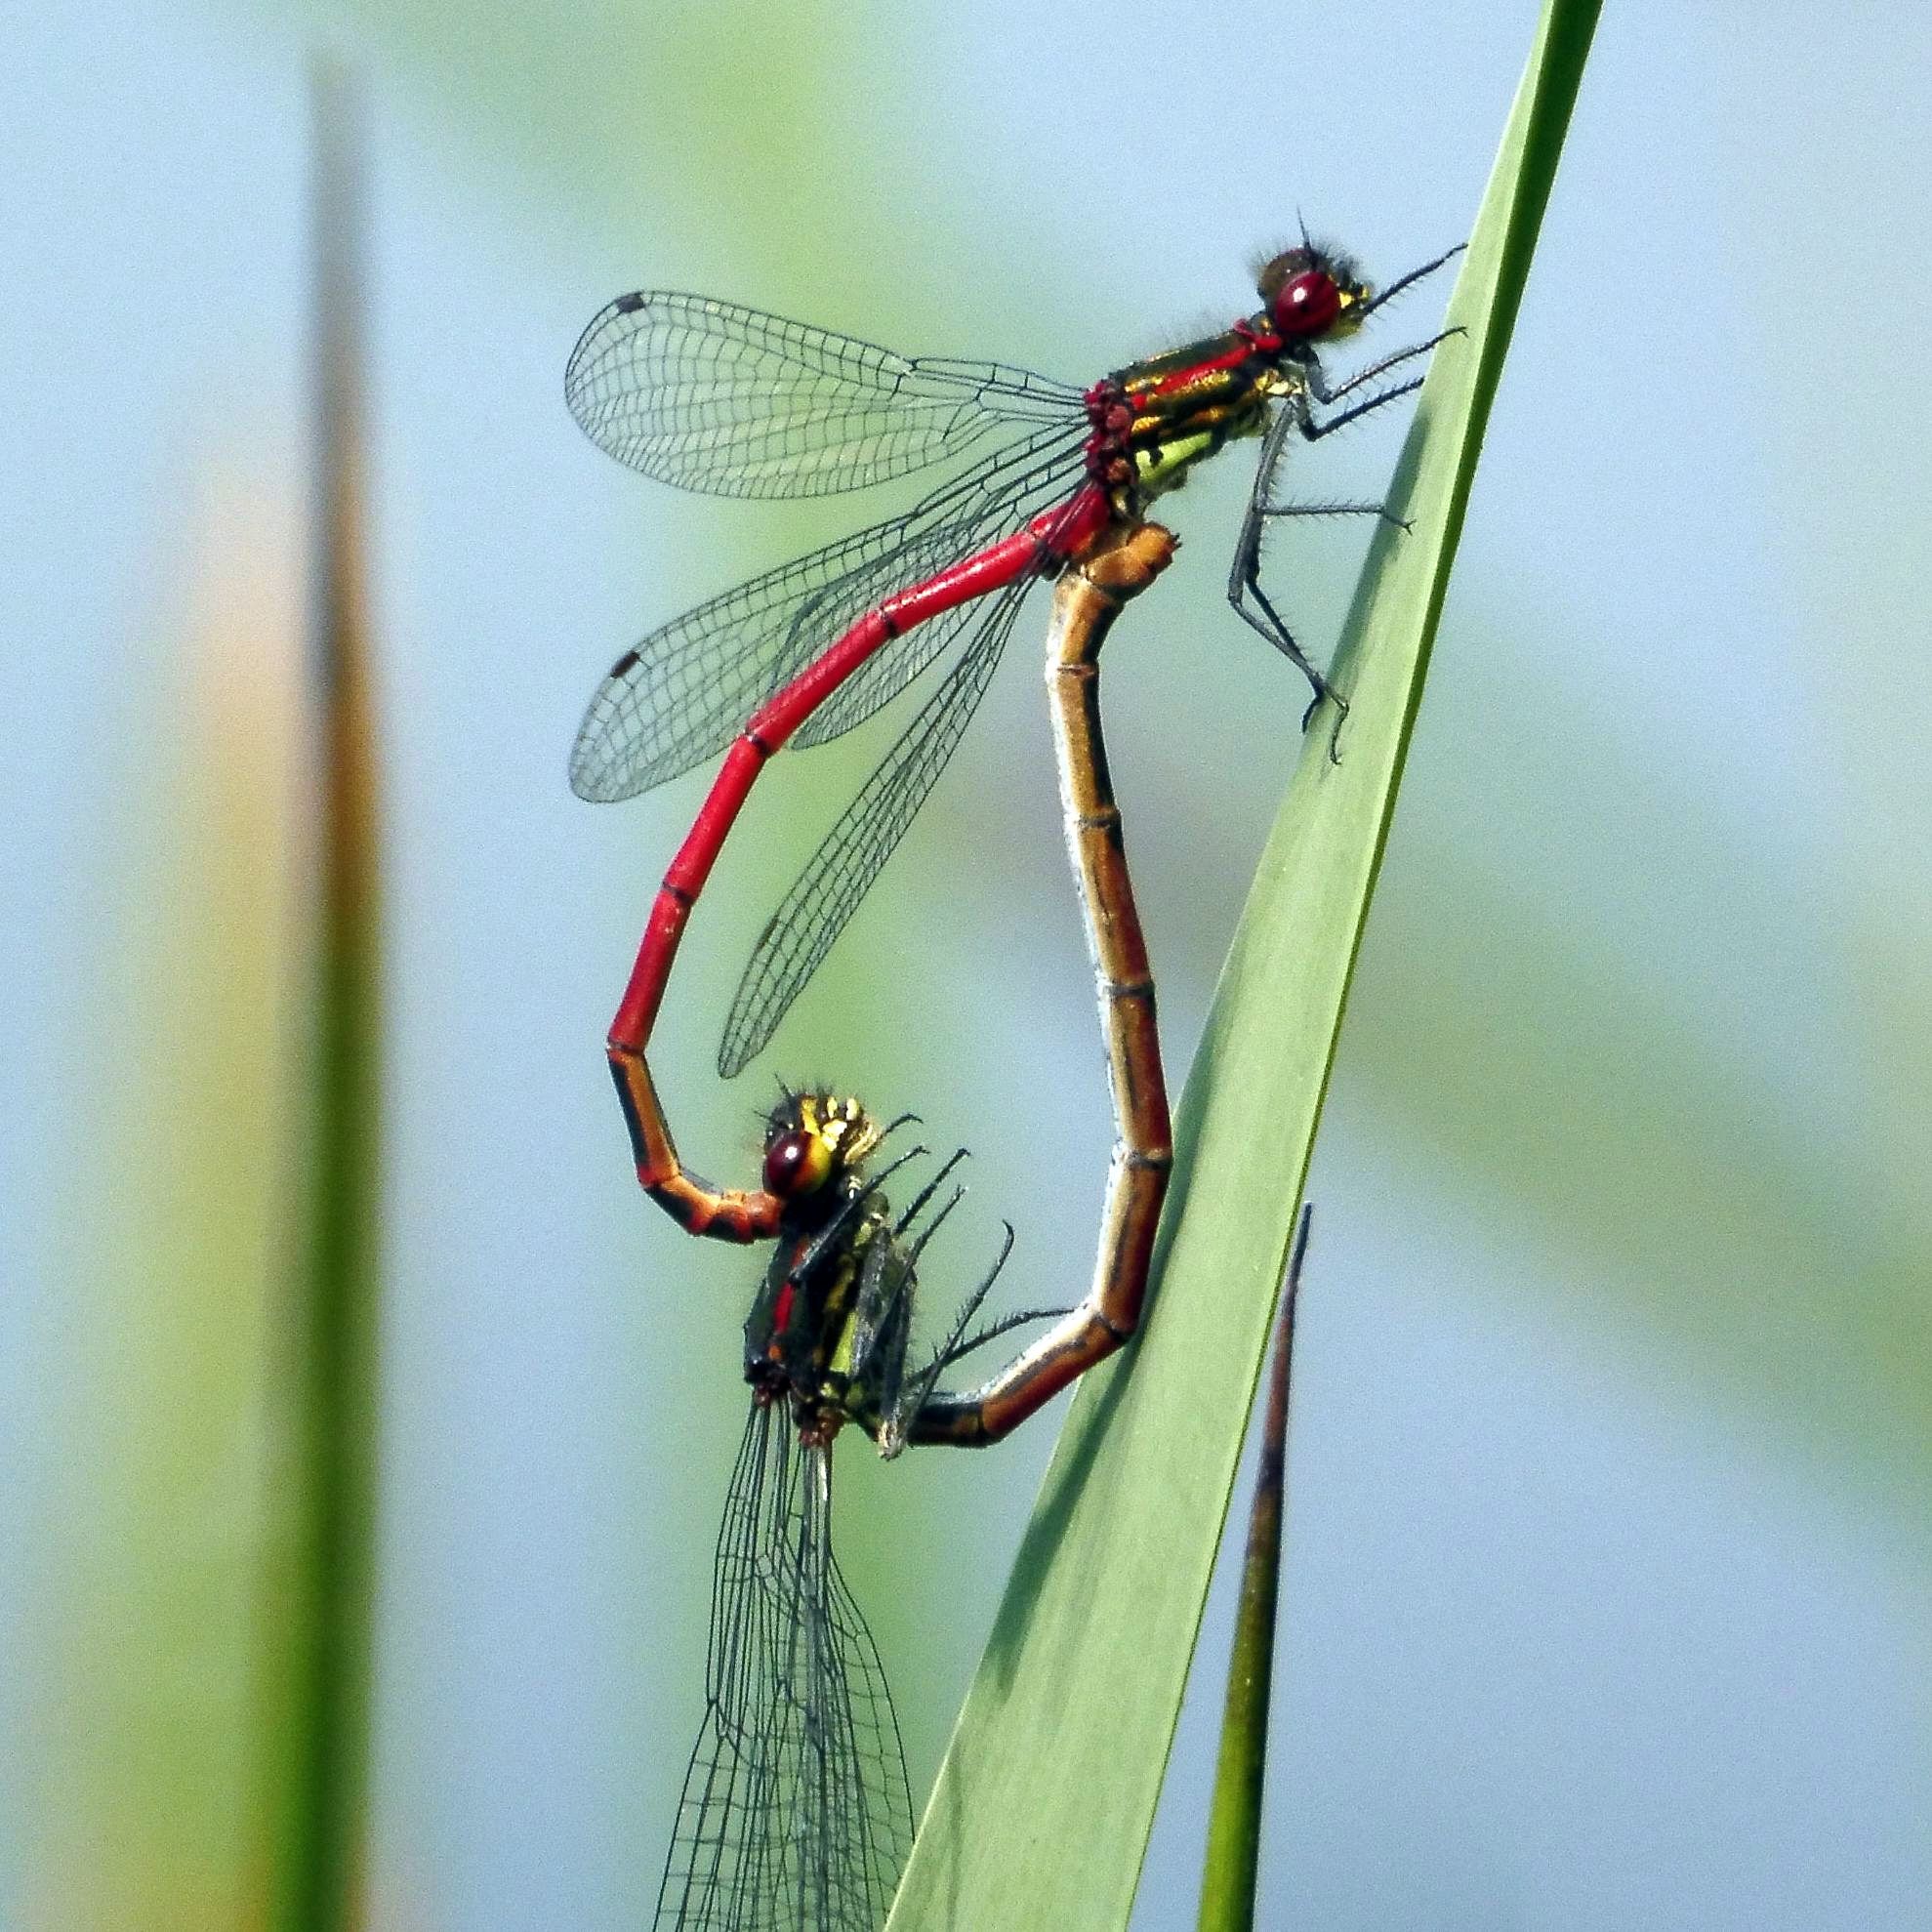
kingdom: Animalia
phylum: Arthropoda
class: Insecta
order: Odonata
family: Coenagrionidae
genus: Pyrrhosoma
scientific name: Pyrrhosoma nymphula
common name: Large red damsel
